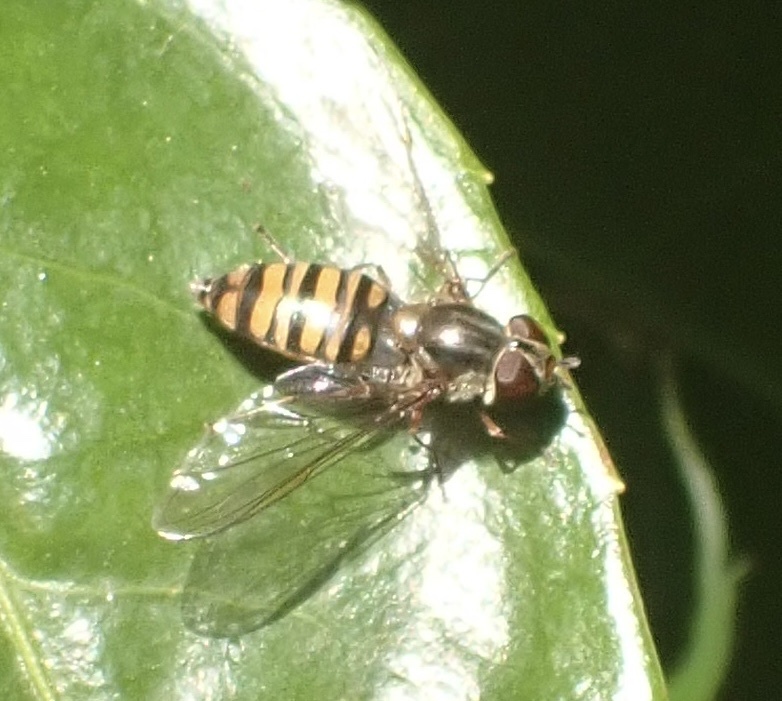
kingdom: Animalia
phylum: Arthropoda
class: Insecta
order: Diptera
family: Syrphidae
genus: Episyrphus
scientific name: Episyrphus balteatus
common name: Marmalade hoverfly
